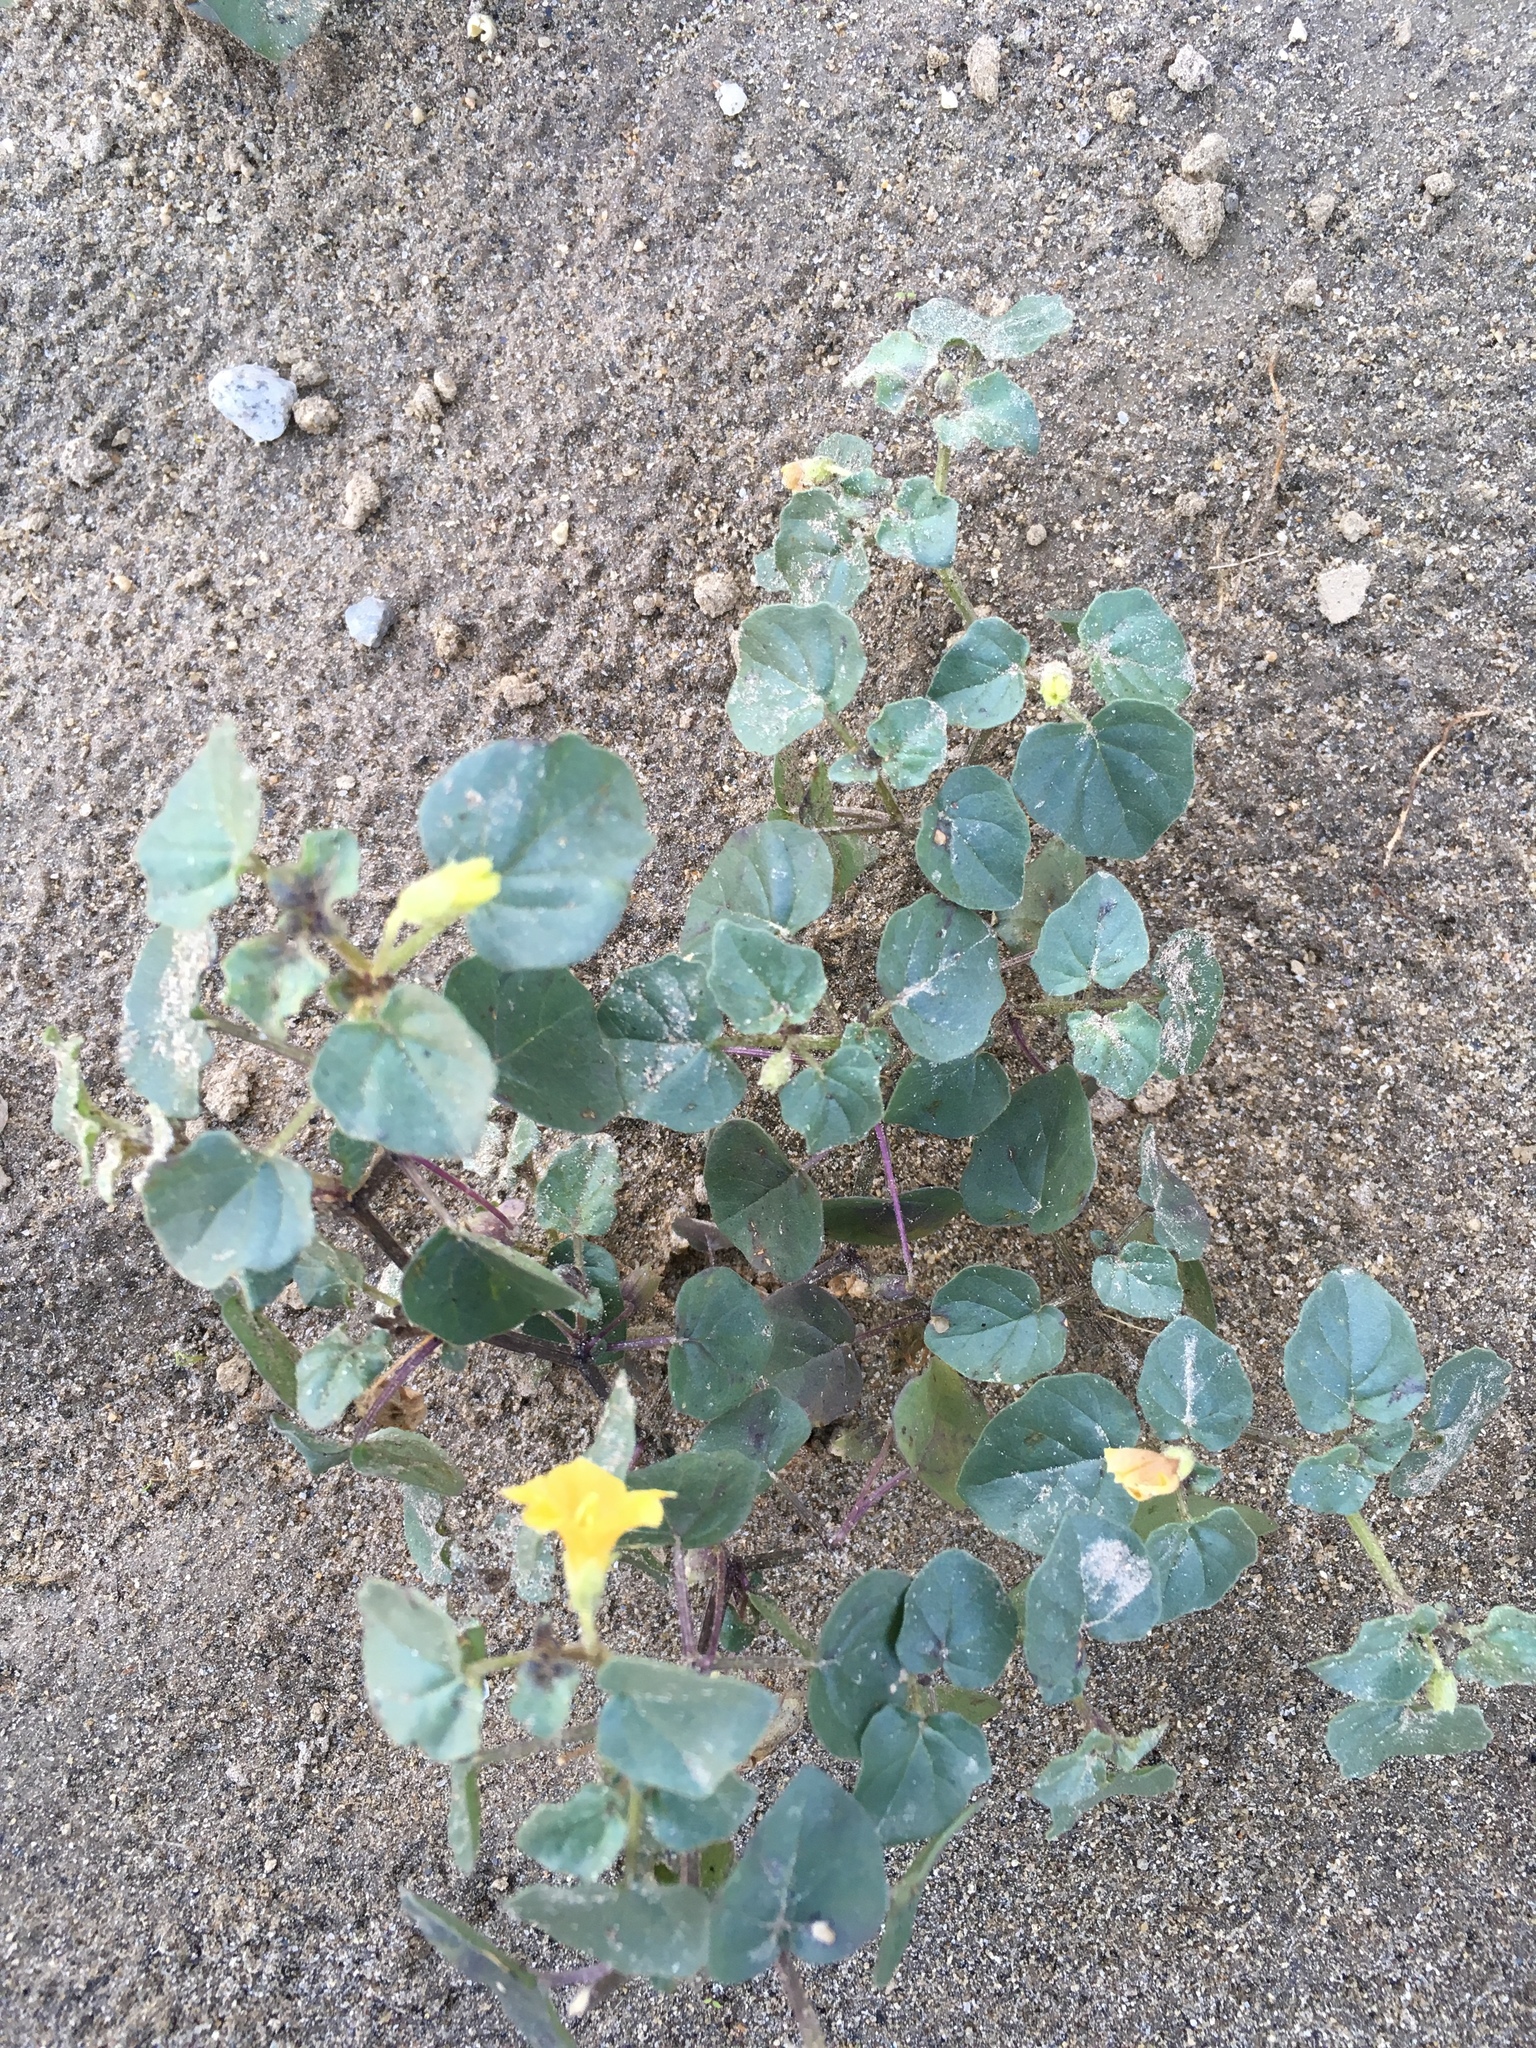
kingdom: Plantae
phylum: Tracheophyta
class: Magnoliopsida
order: Solanales
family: Solanaceae
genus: Physalis
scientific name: Physalis crassifolia
